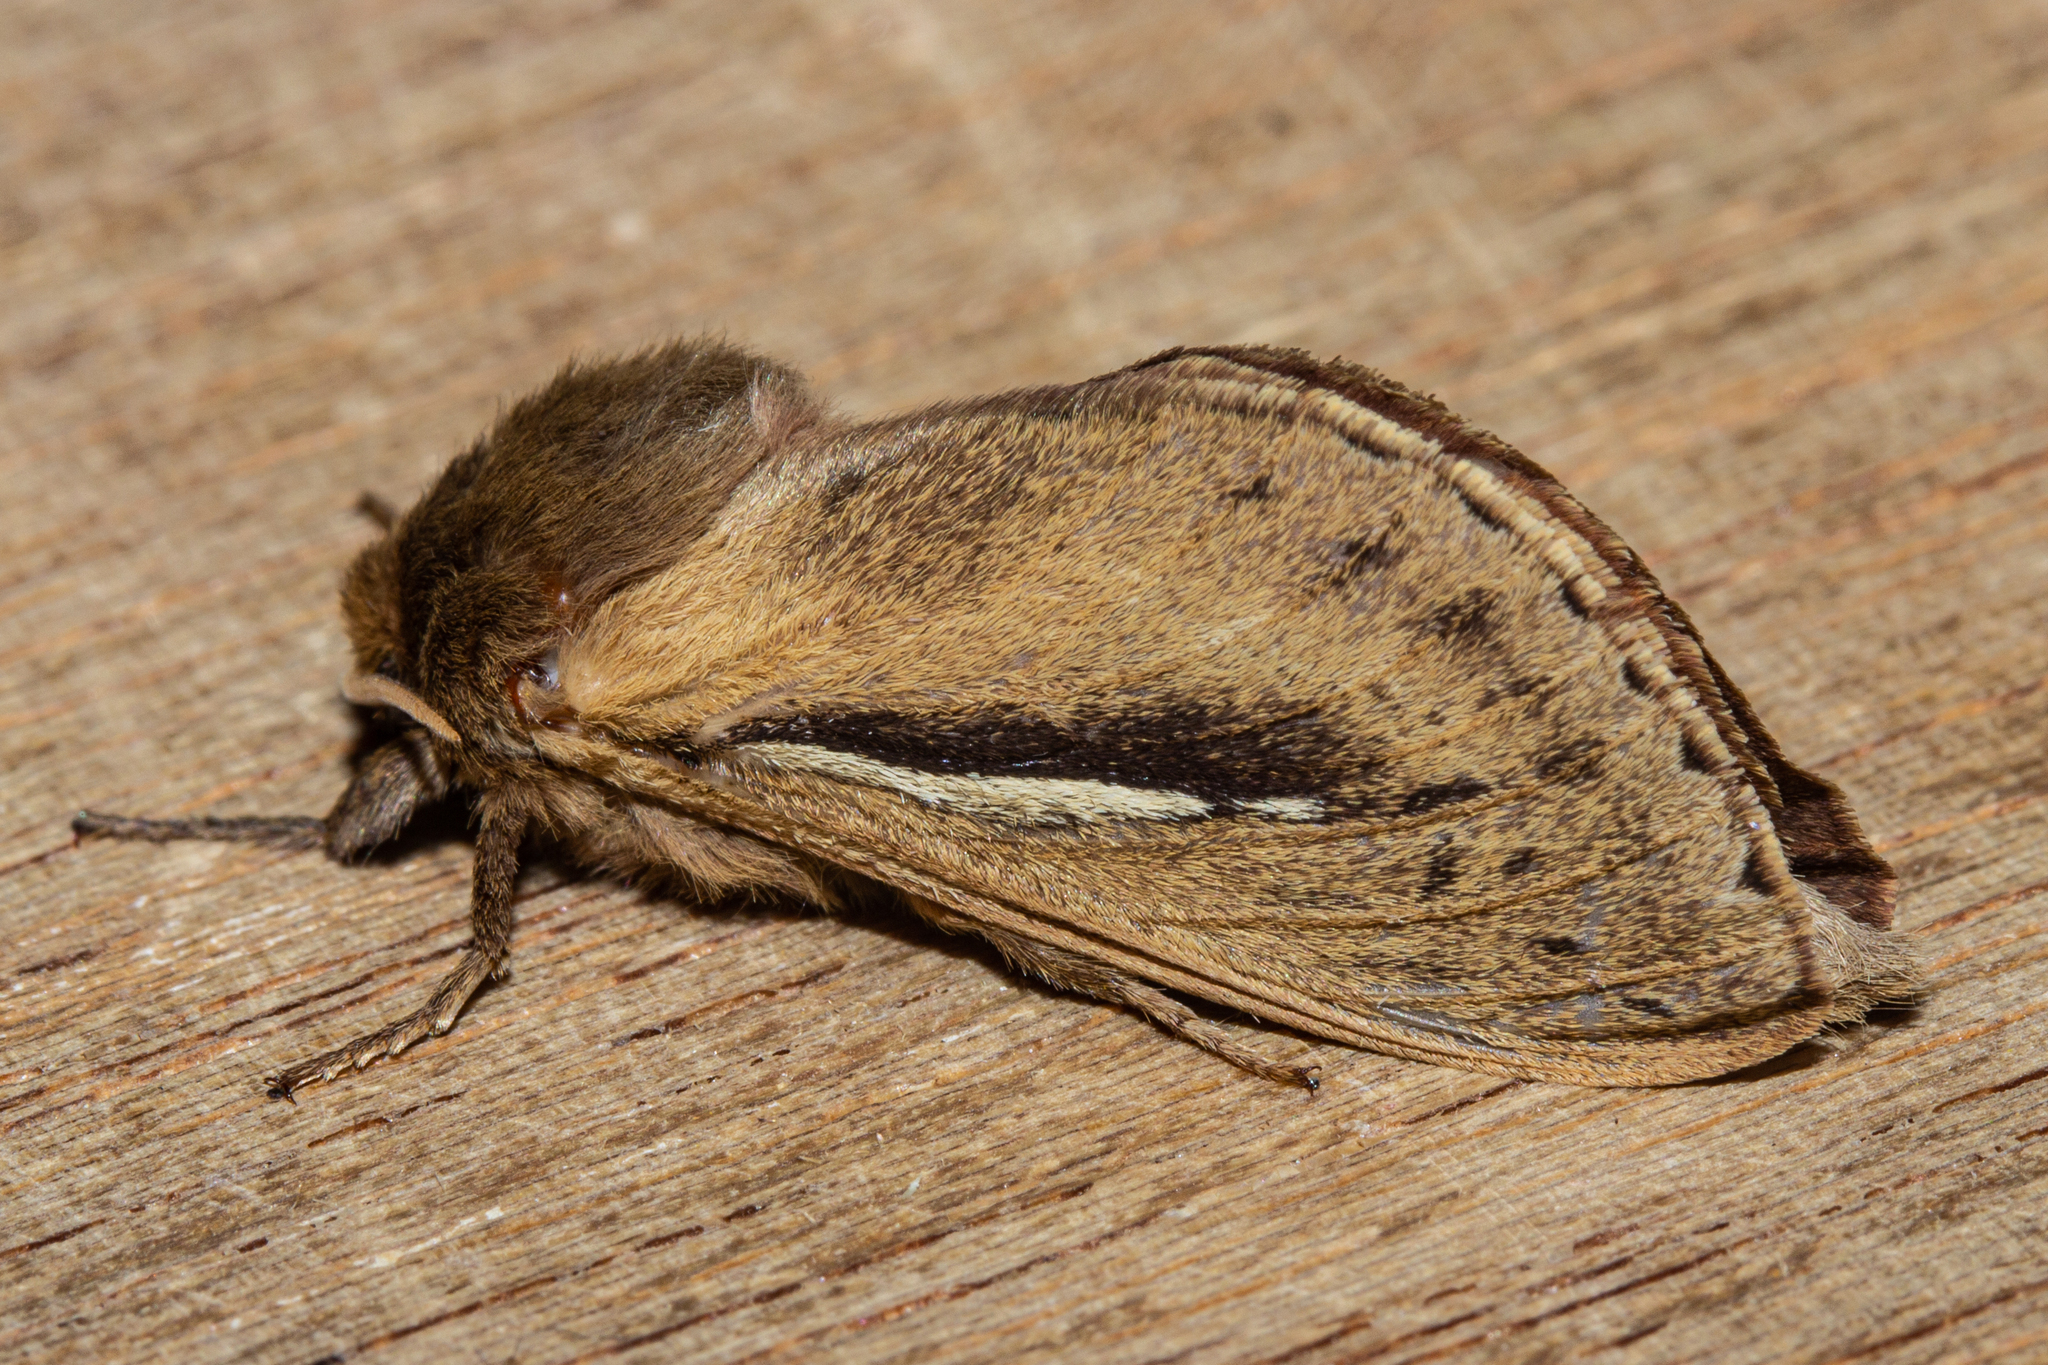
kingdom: Animalia
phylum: Arthropoda
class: Insecta
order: Lepidoptera
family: Hepialidae
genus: Wiseana
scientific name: Wiseana umbraculatus
